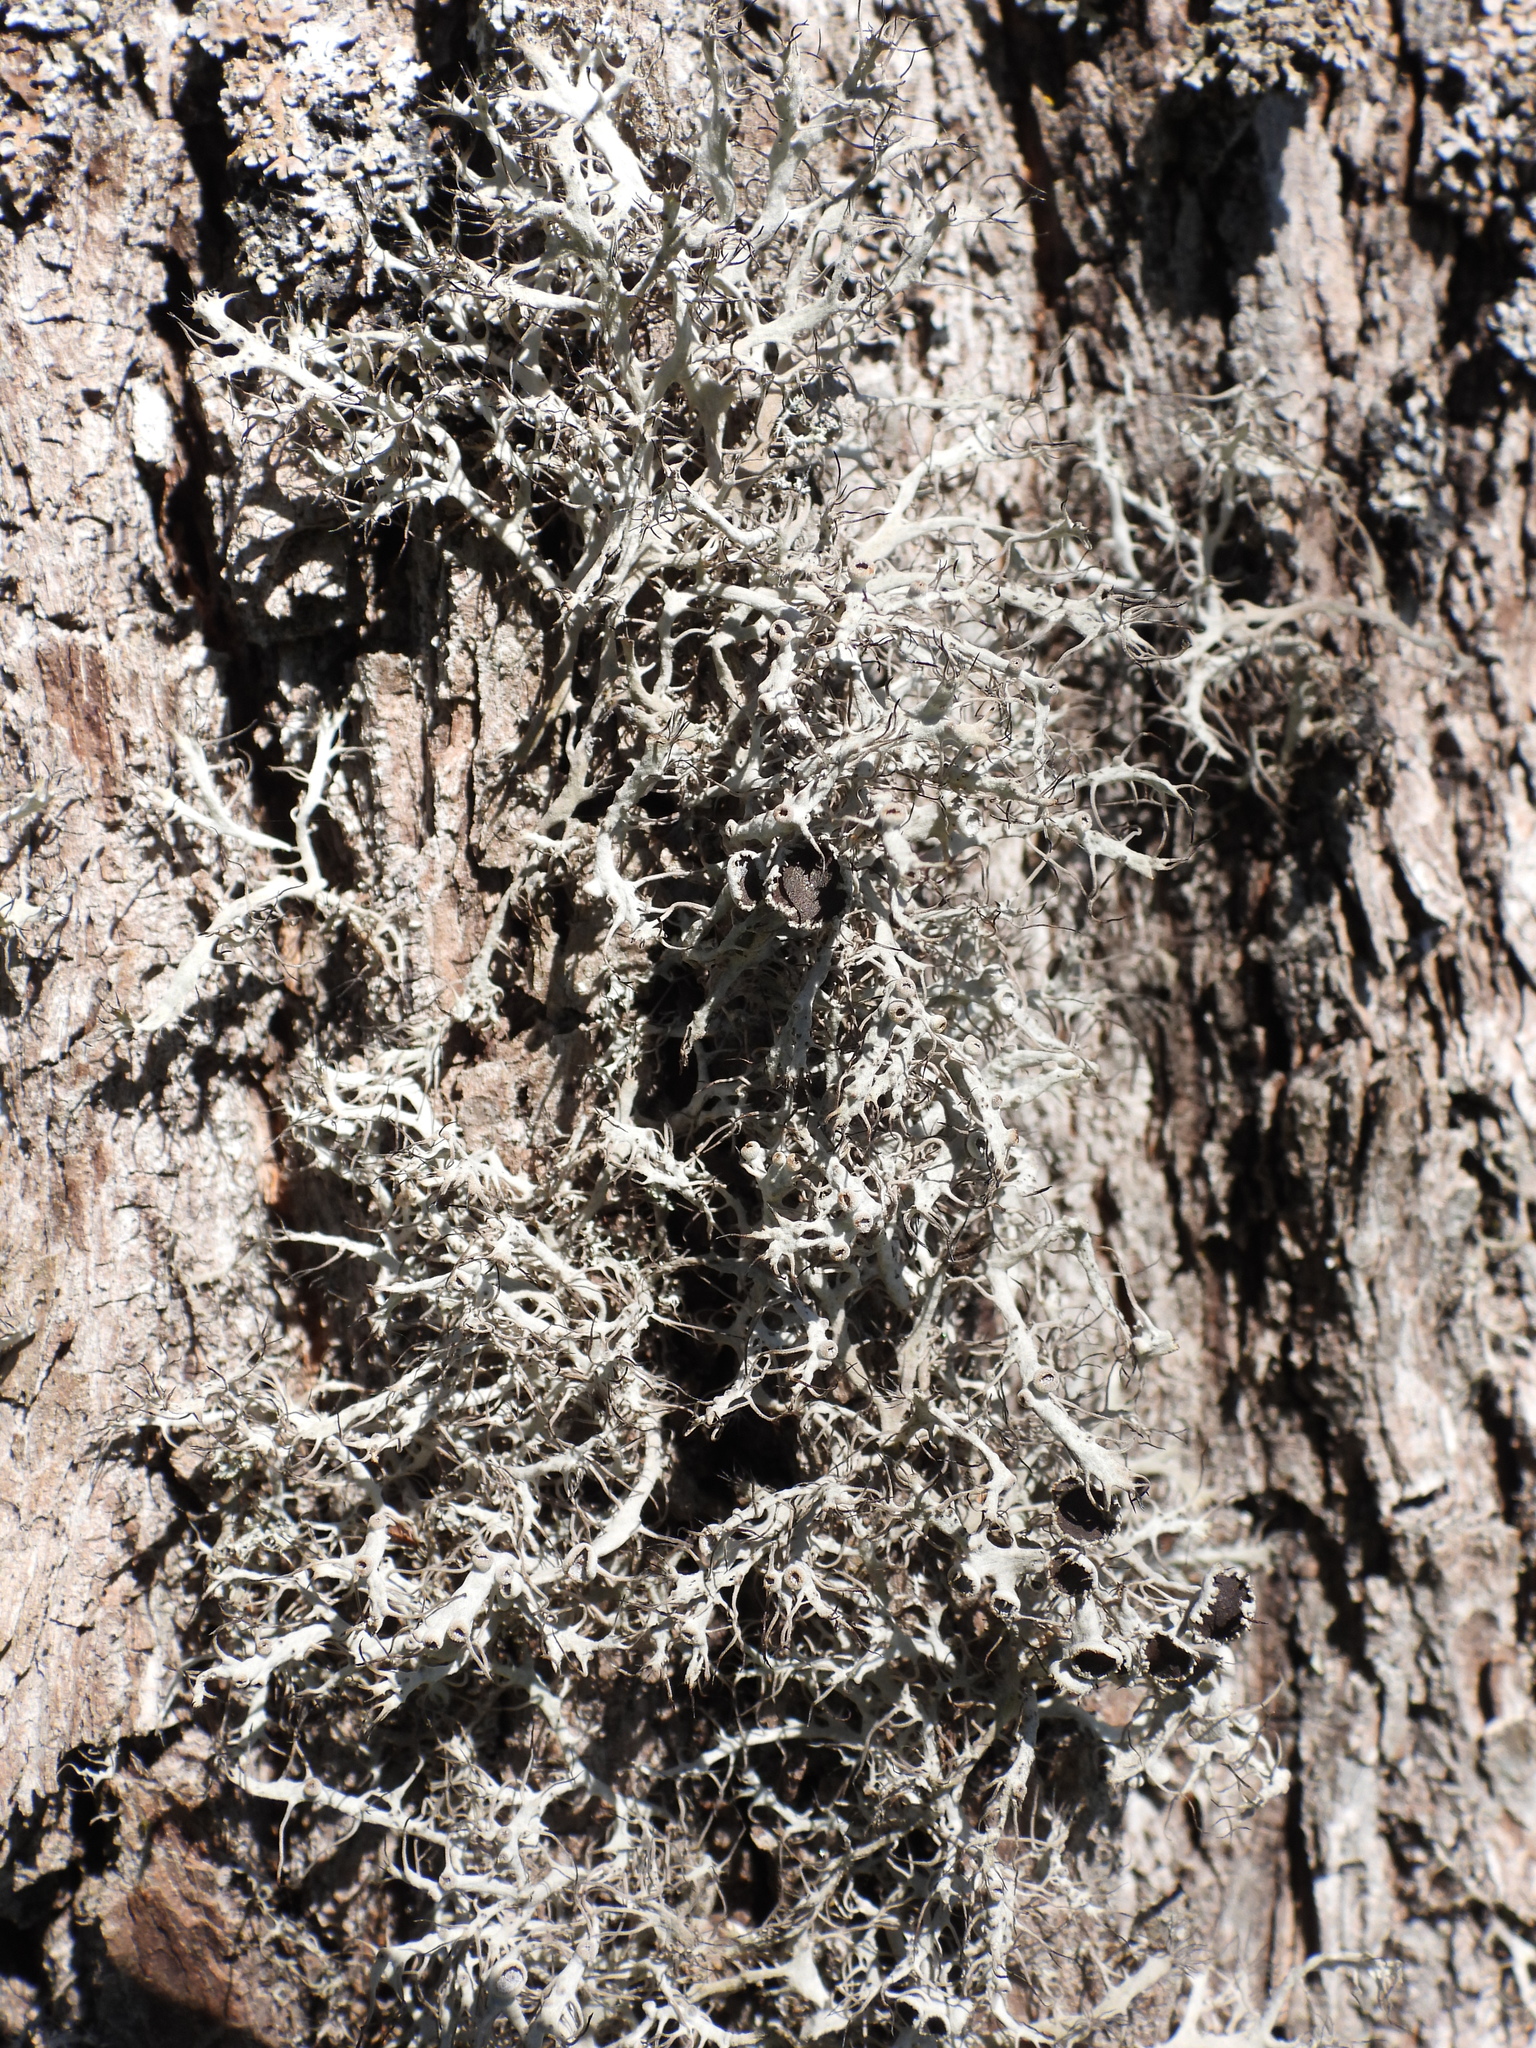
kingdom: Fungi
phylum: Ascomycota
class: Lecanoromycetes
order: Caliciales
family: Physciaceae
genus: Anaptychia
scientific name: Anaptychia ciliaris
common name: Great ciliated lichen
